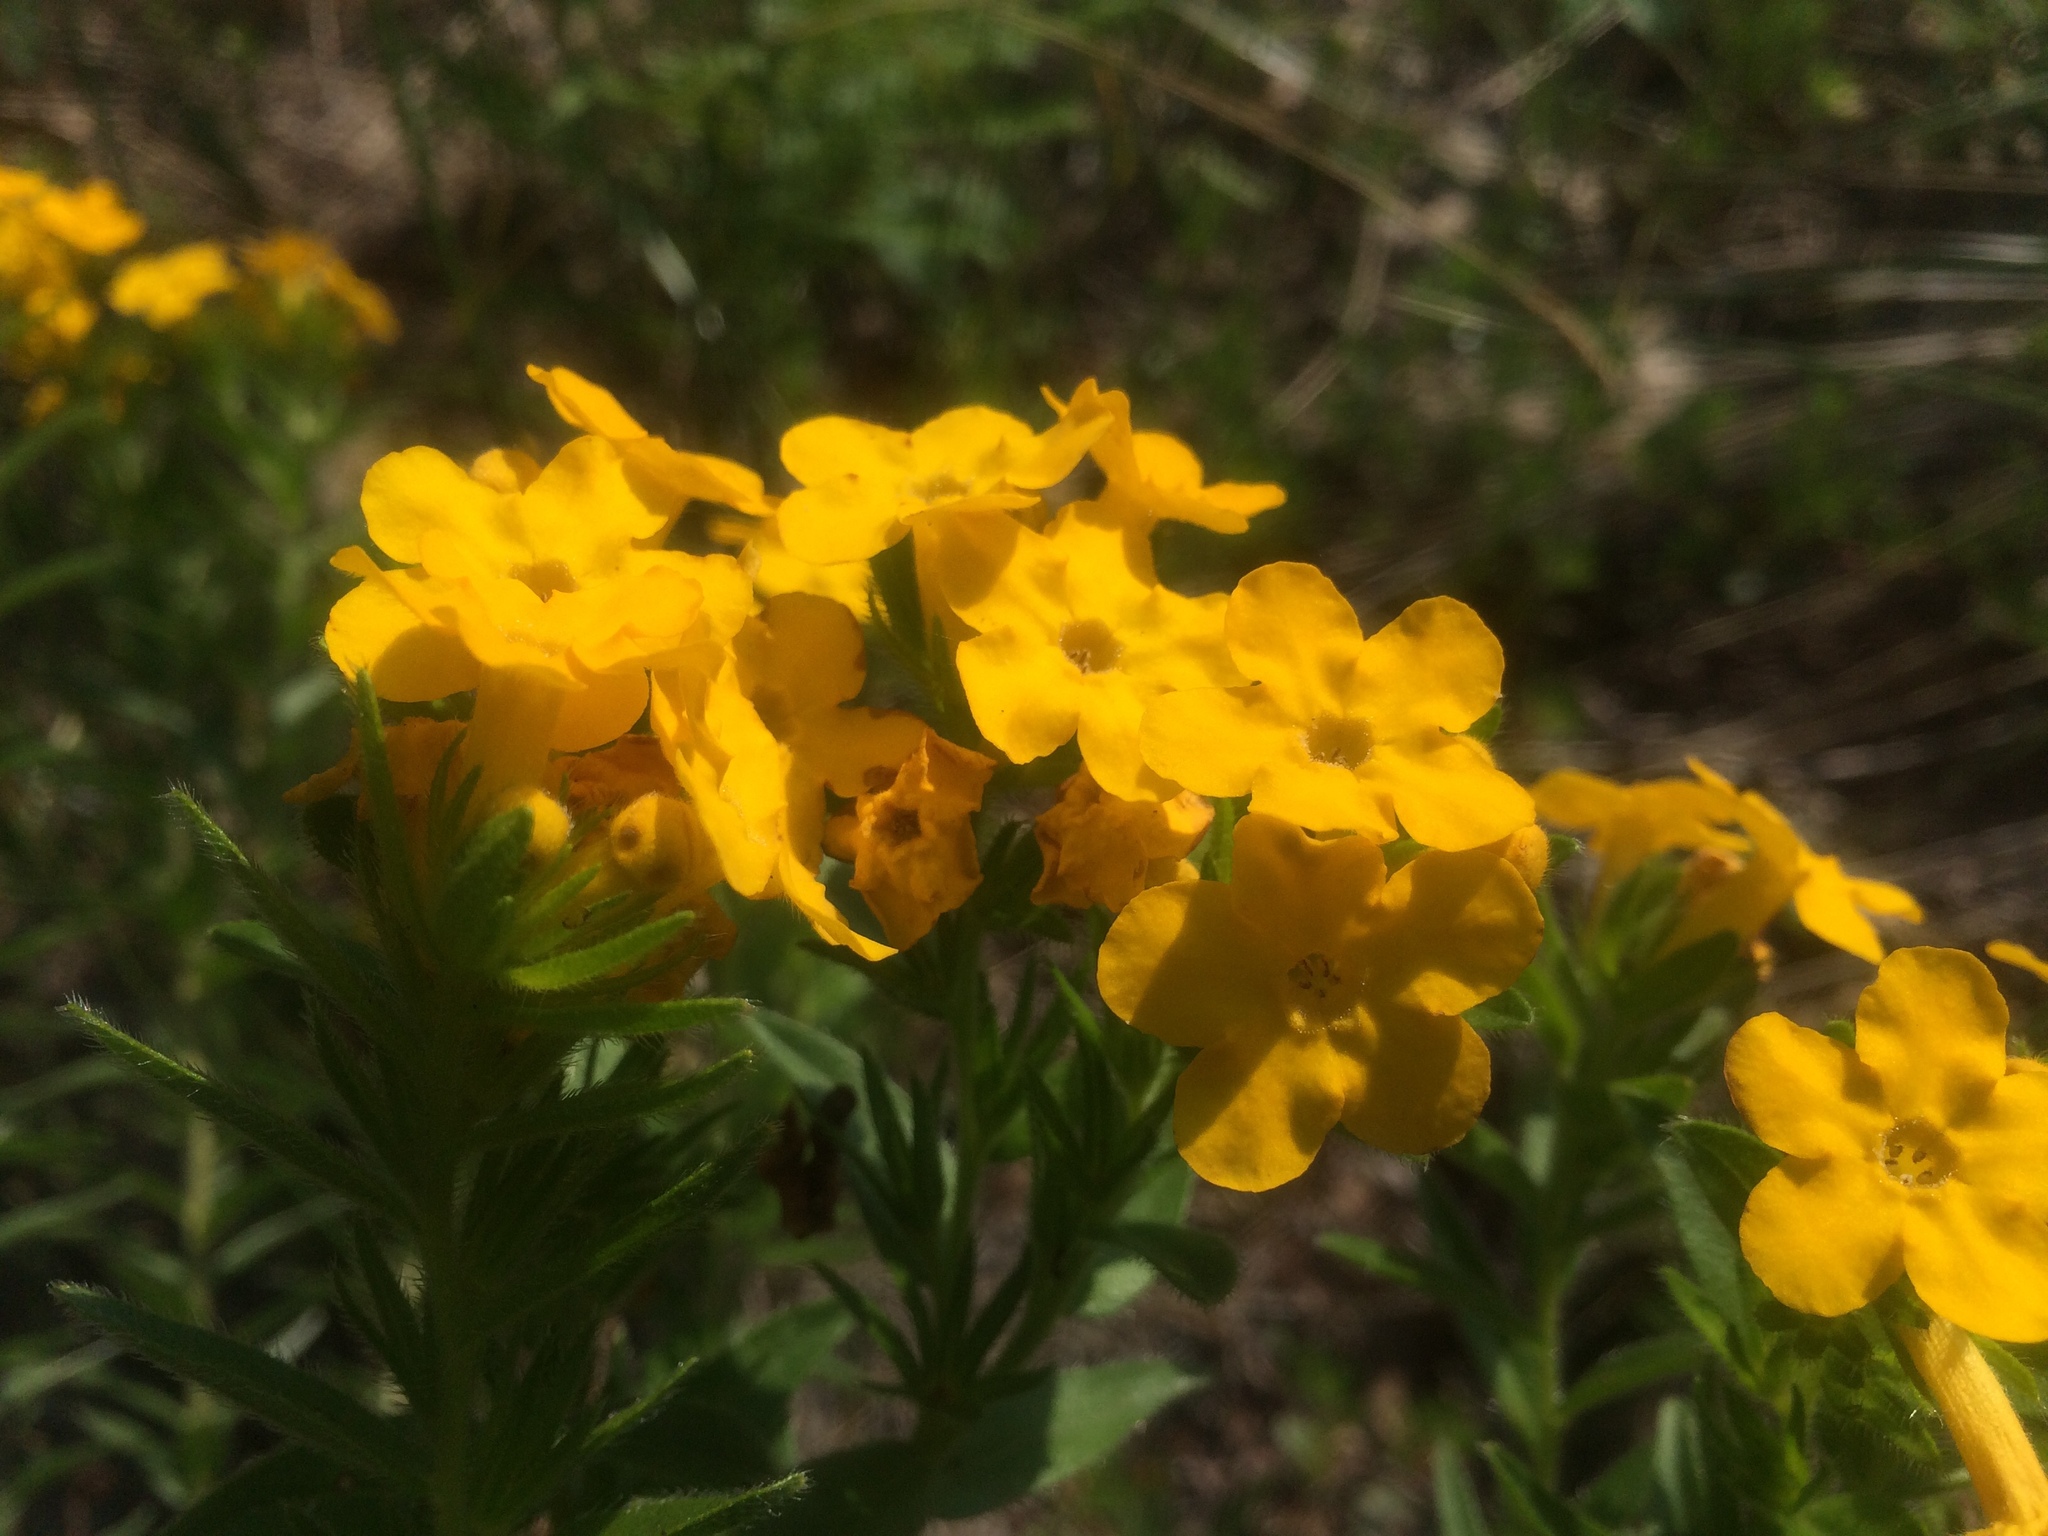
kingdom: Plantae
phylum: Tracheophyta
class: Magnoliopsida
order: Boraginales
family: Boraginaceae
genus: Lithospermum
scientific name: Lithospermum caroliniense
